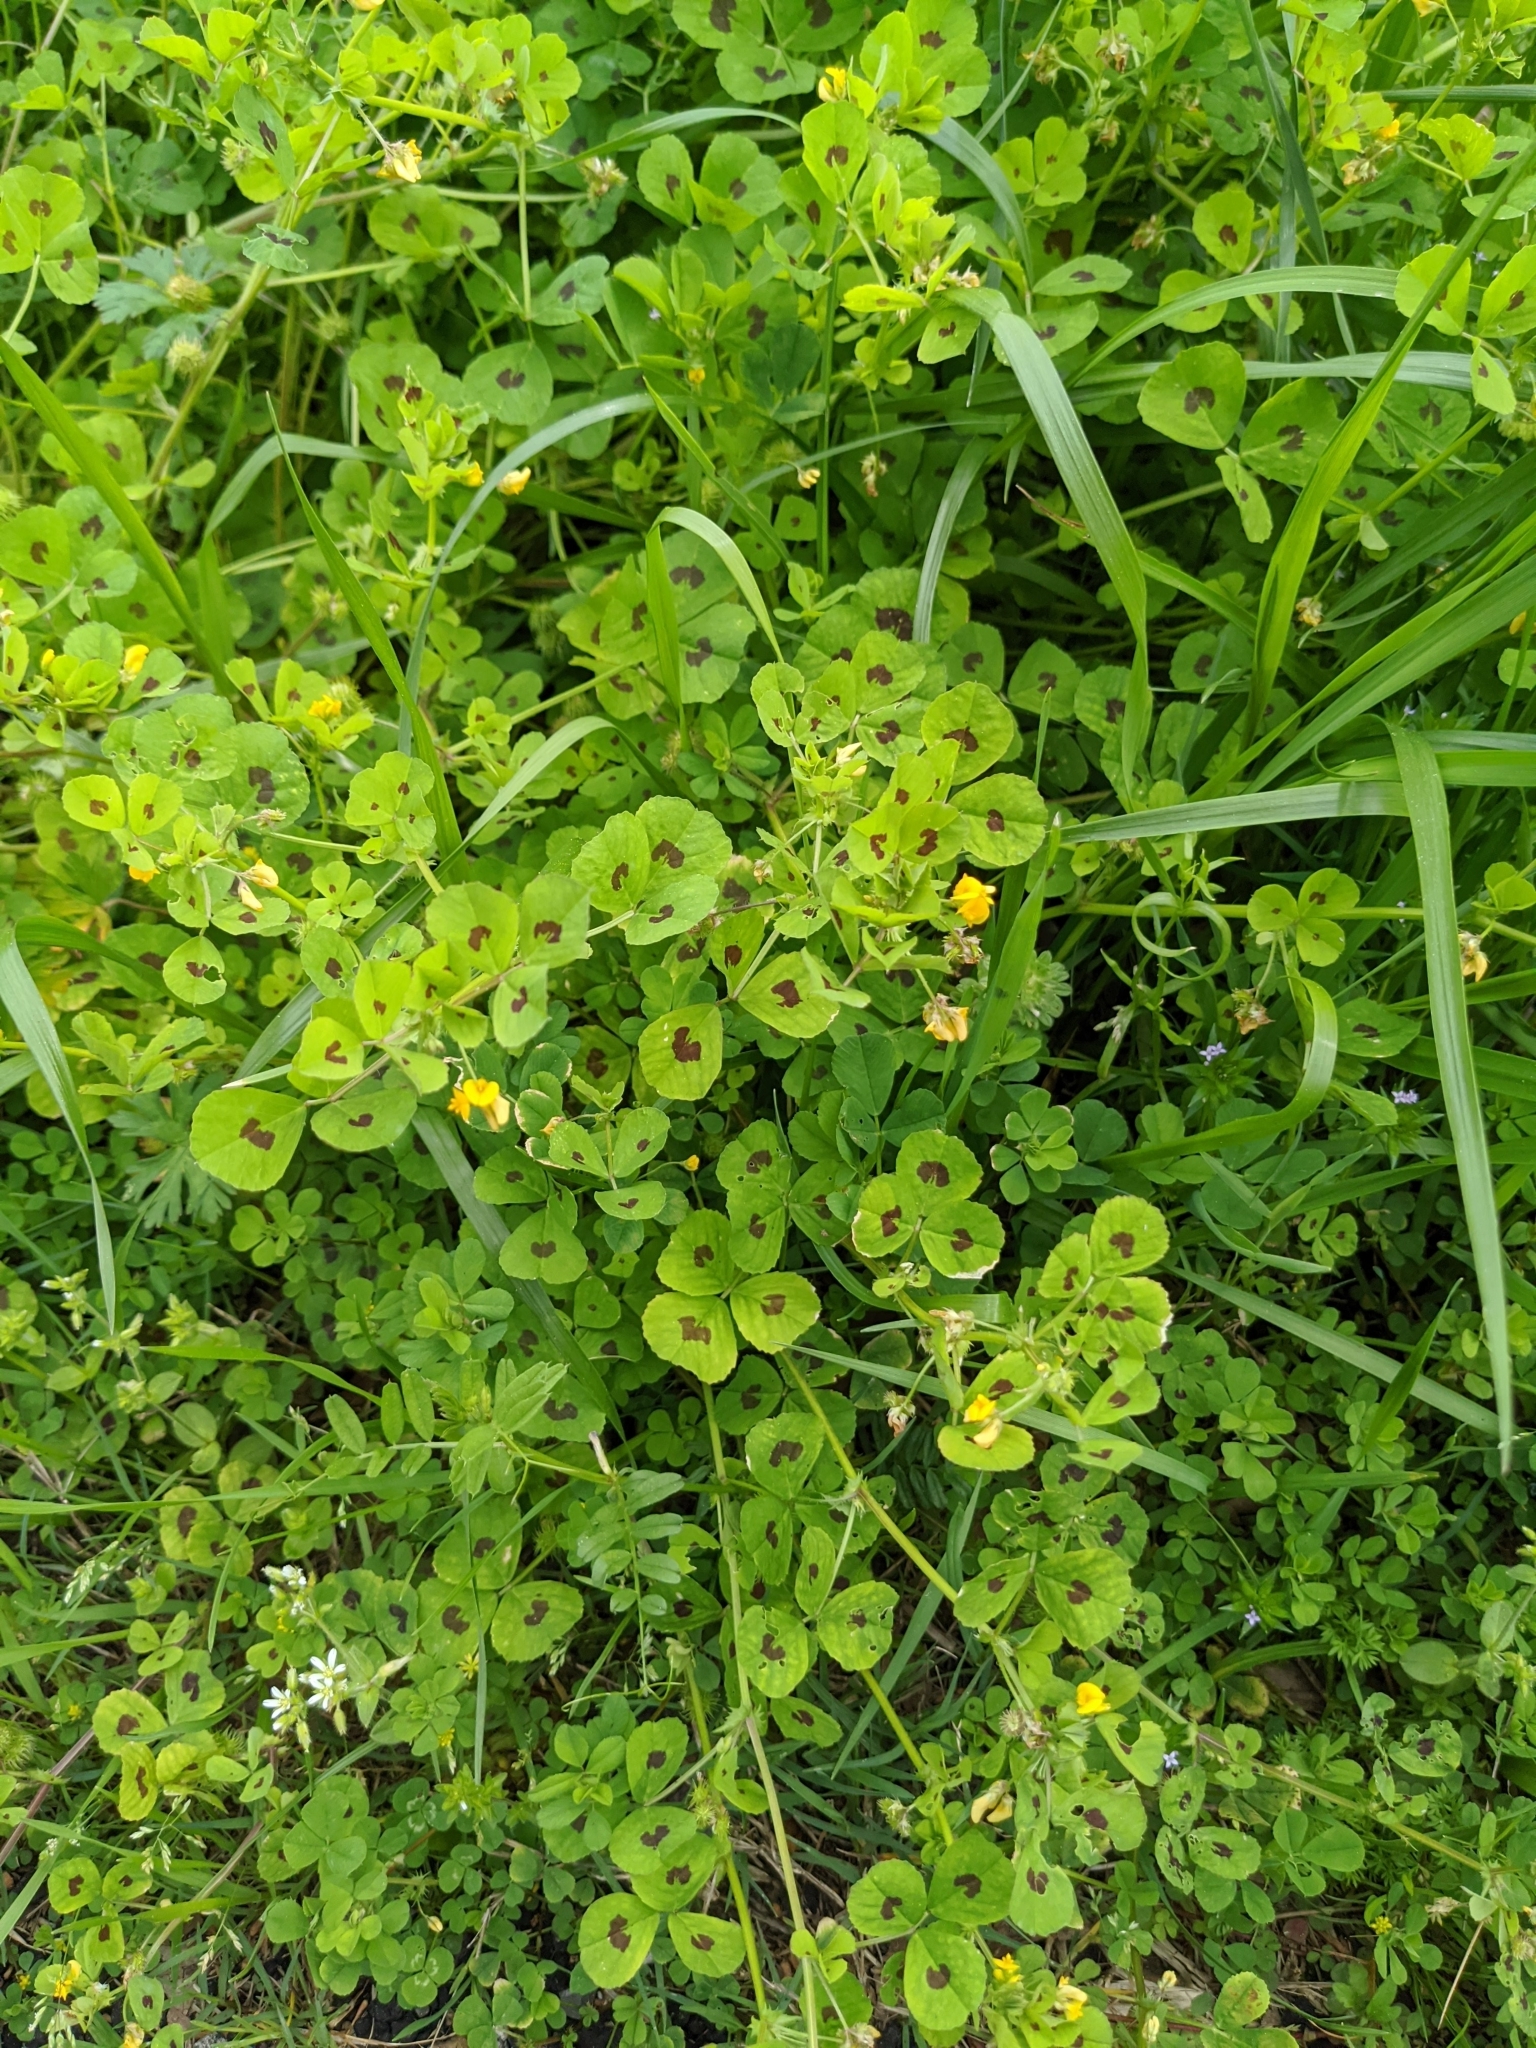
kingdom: Plantae
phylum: Tracheophyta
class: Magnoliopsida
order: Fabales
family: Fabaceae
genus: Medicago
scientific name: Medicago arabica
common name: Spotted medick
